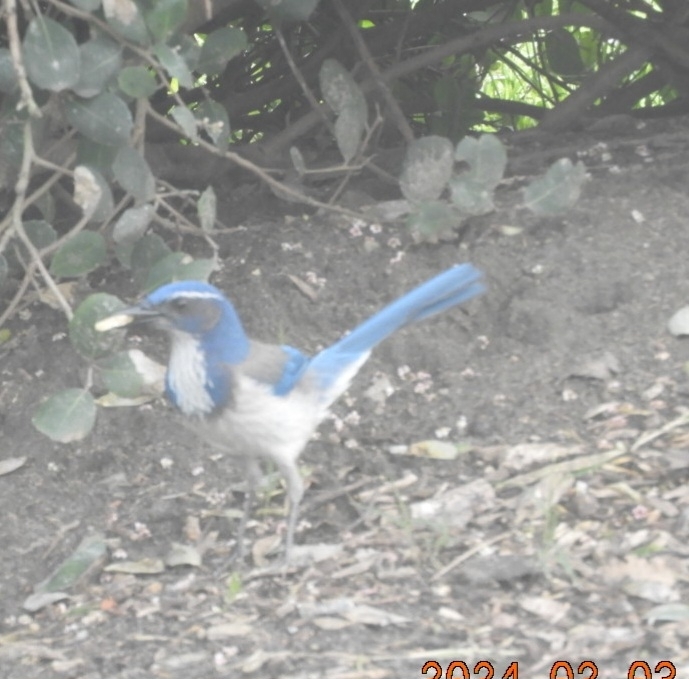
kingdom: Animalia
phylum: Chordata
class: Aves
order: Passeriformes
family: Corvidae
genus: Aphelocoma
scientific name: Aphelocoma californica
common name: California scrub-jay
